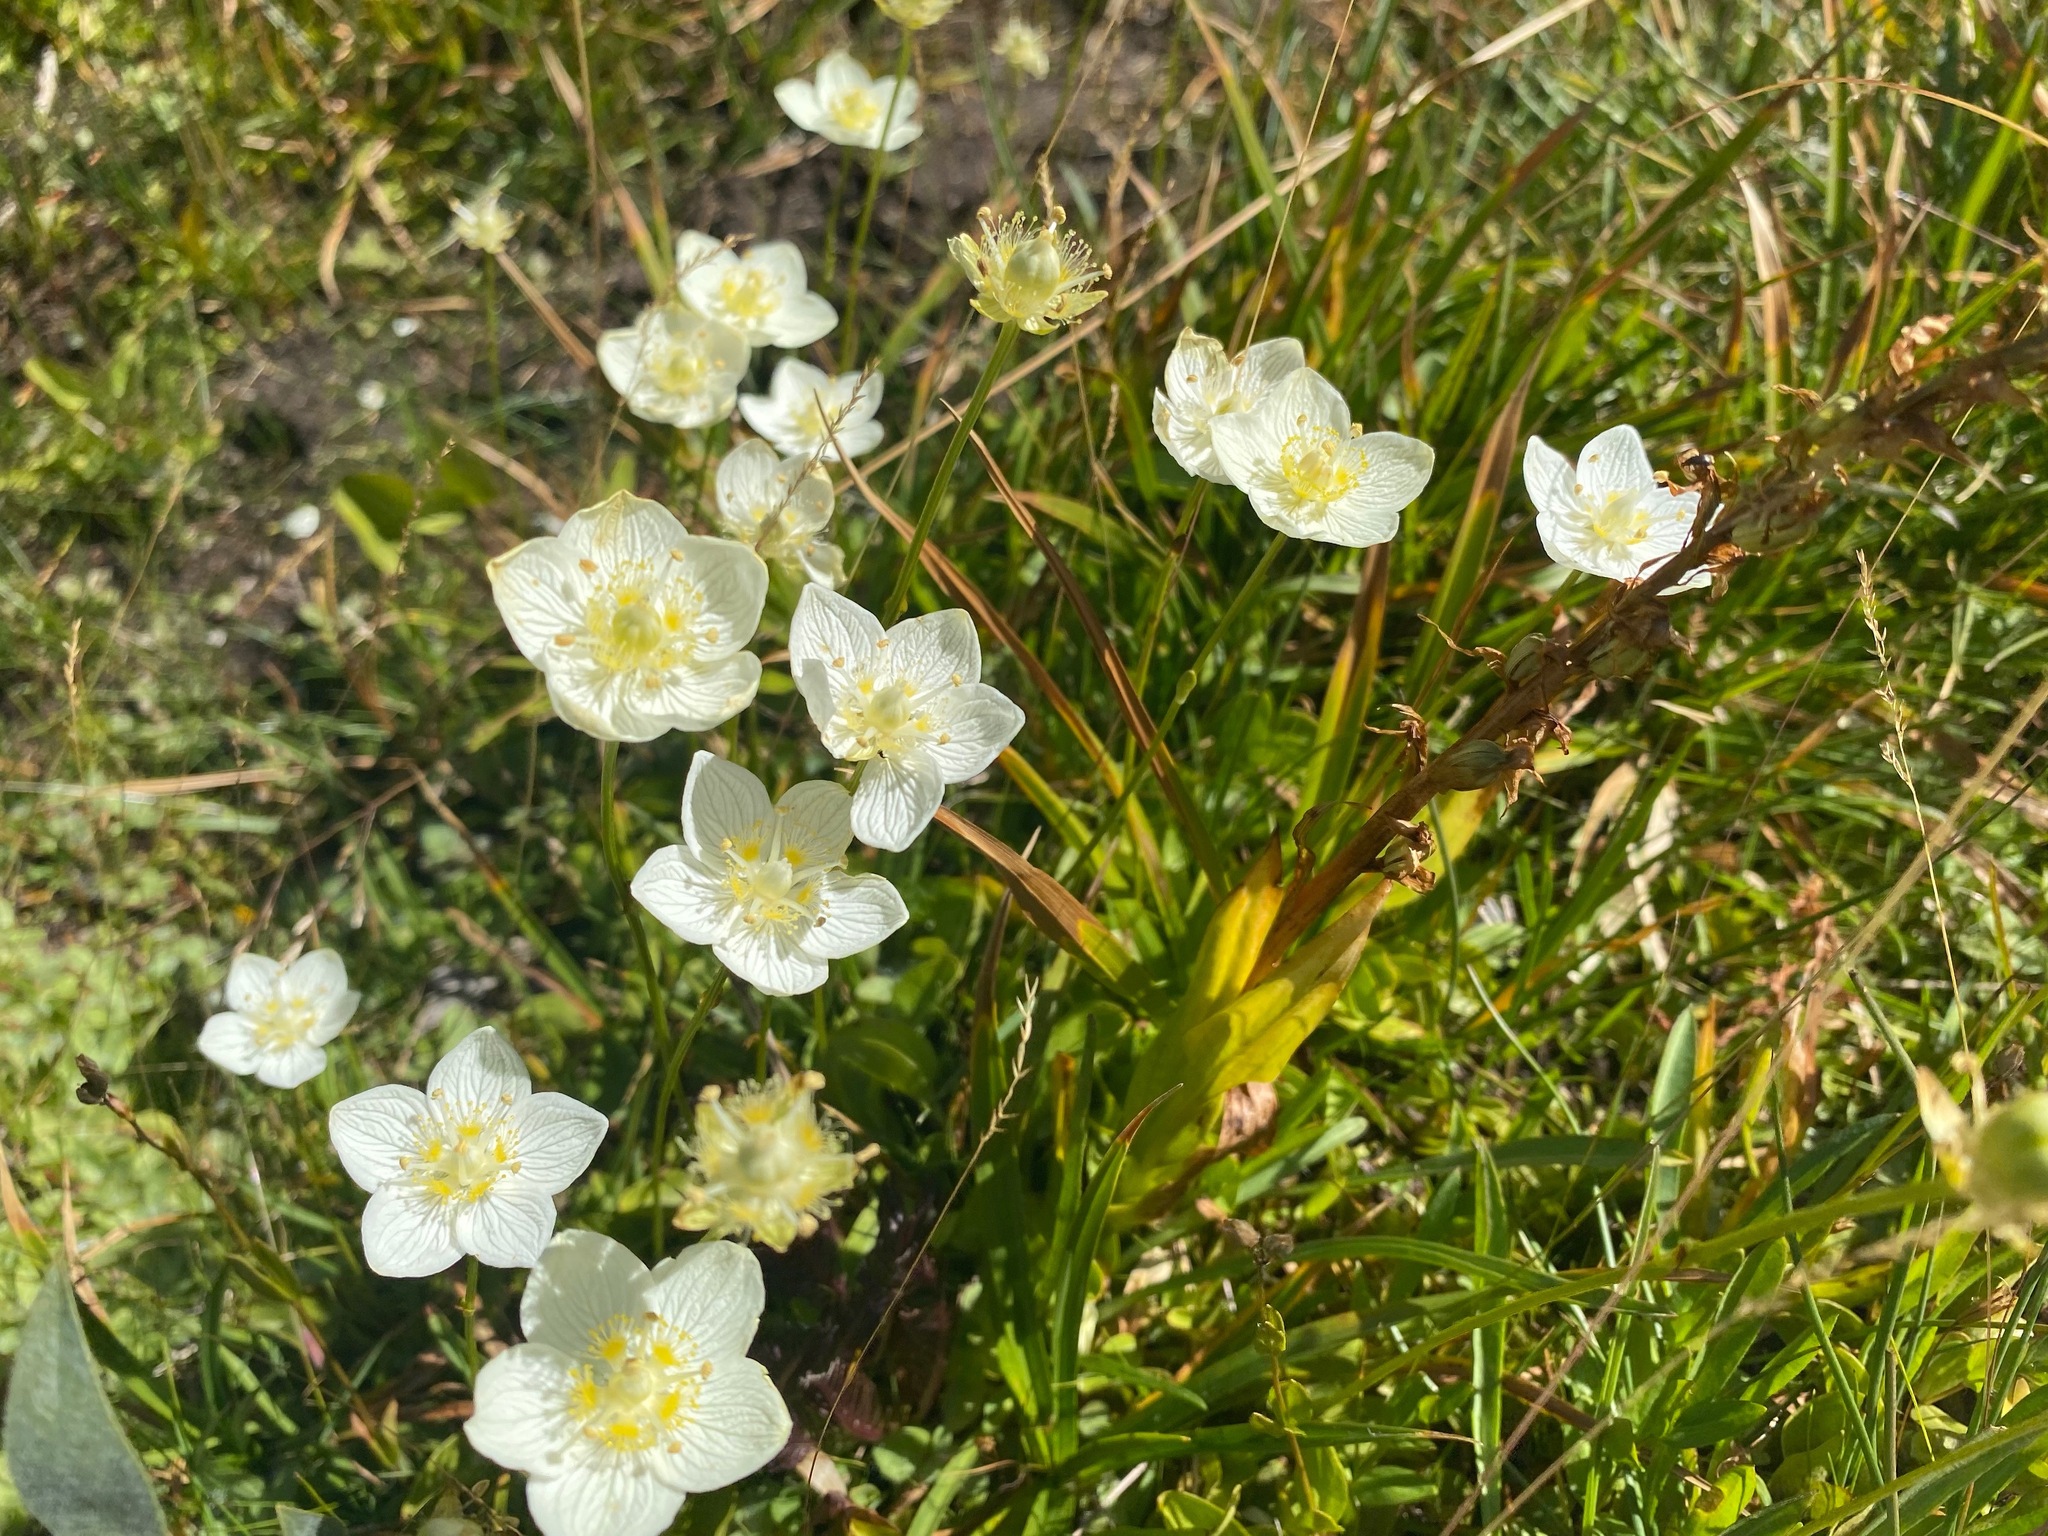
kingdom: Plantae
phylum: Tracheophyta
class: Magnoliopsida
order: Celastrales
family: Parnassiaceae
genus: Parnassia
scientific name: Parnassia palustris
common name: Grass-of-parnassus
